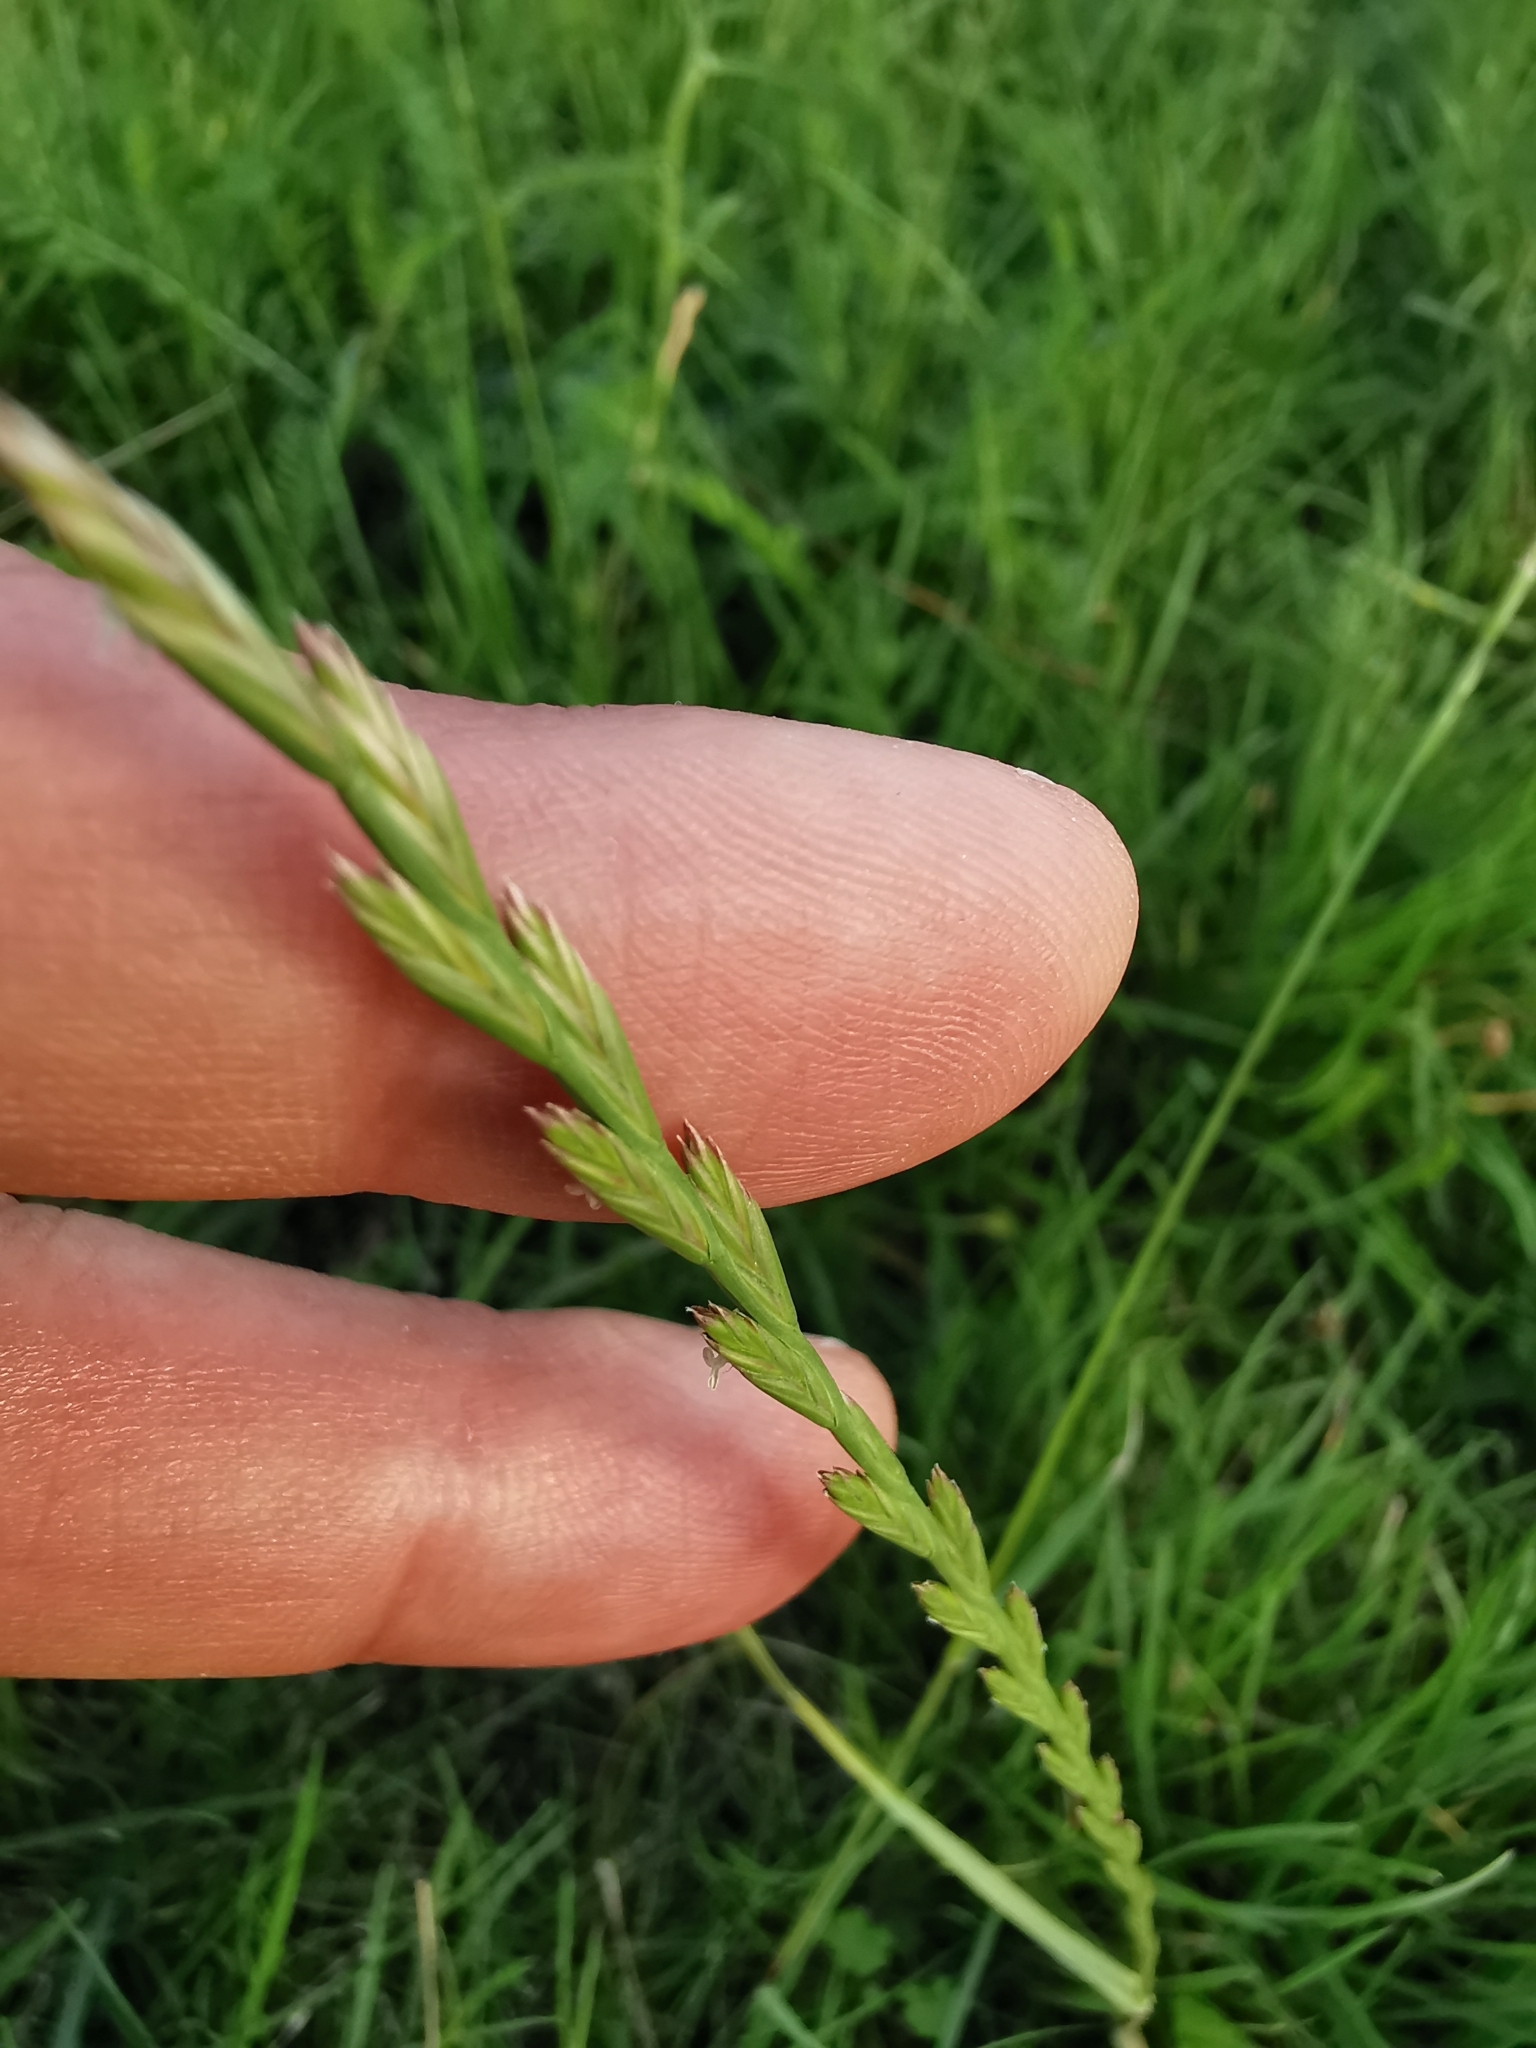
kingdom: Plantae
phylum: Tracheophyta
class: Liliopsida
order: Poales
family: Poaceae
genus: Lolium
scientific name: Lolium perenne
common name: Perennial ryegrass
